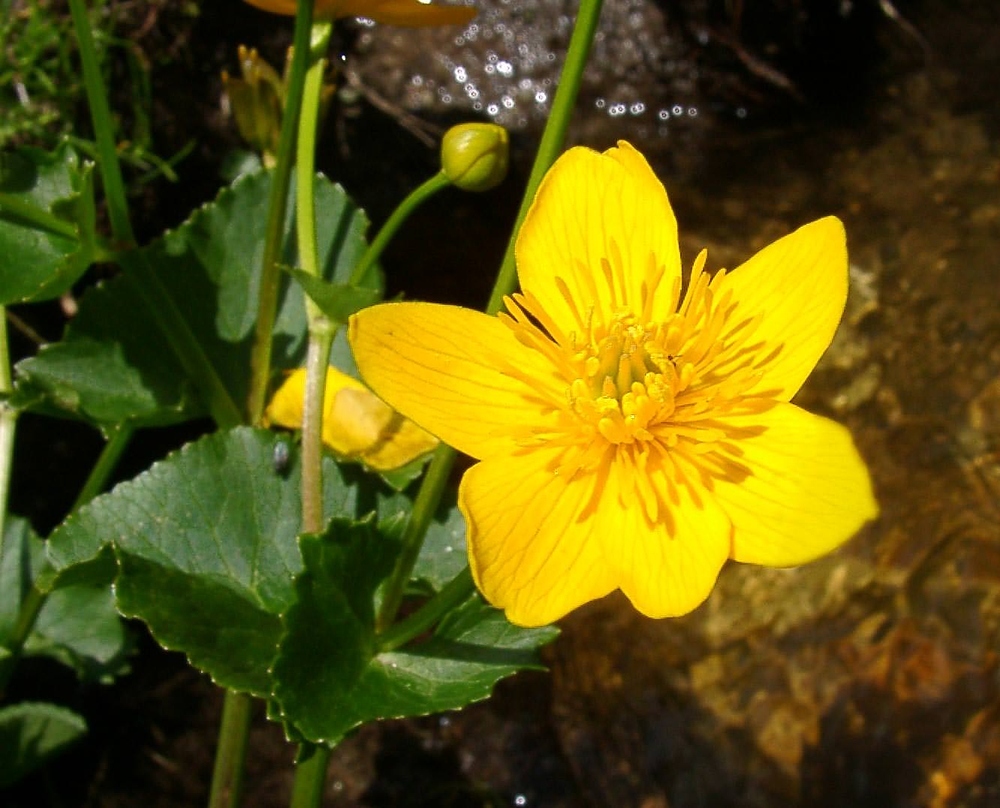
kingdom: Plantae
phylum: Tracheophyta
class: Magnoliopsida
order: Ranunculales
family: Ranunculaceae
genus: Caltha
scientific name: Caltha palustris
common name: Marsh marigold
